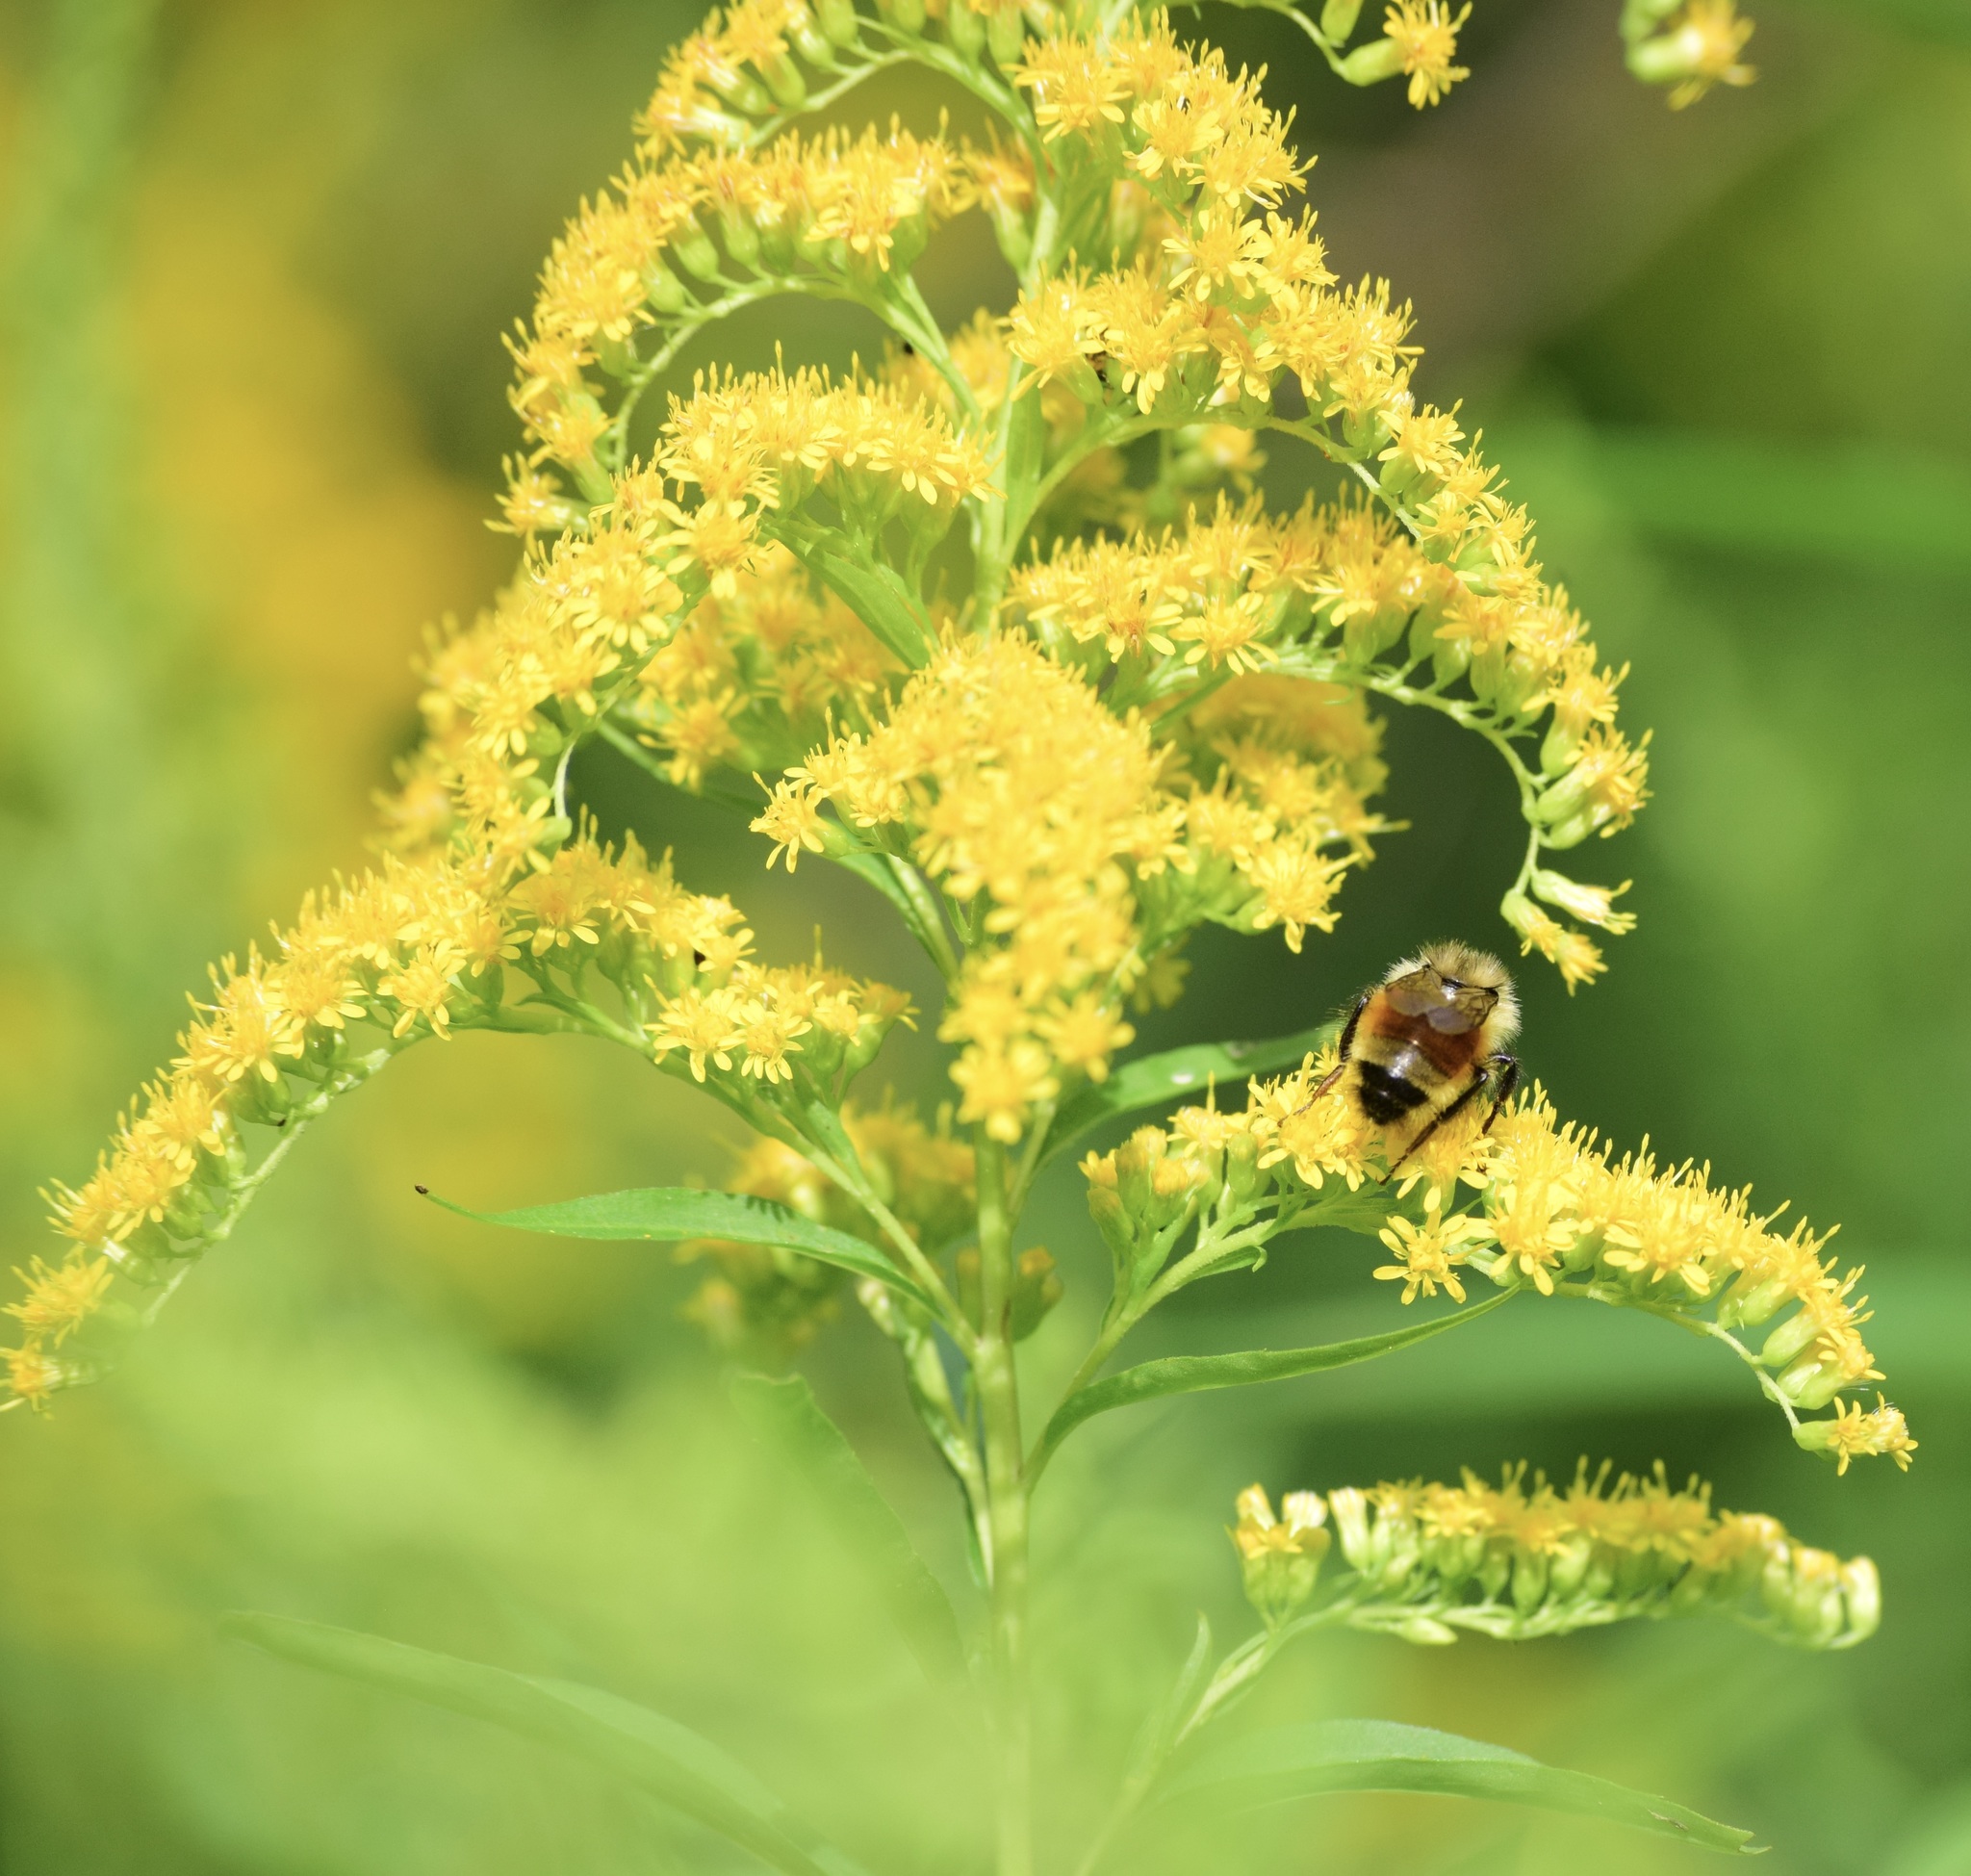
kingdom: Animalia
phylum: Arthropoda
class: Insecta
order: Hymenoptera
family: Apidae
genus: Bombus
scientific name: Bombus ternarius
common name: Tri-colored bumble bee
